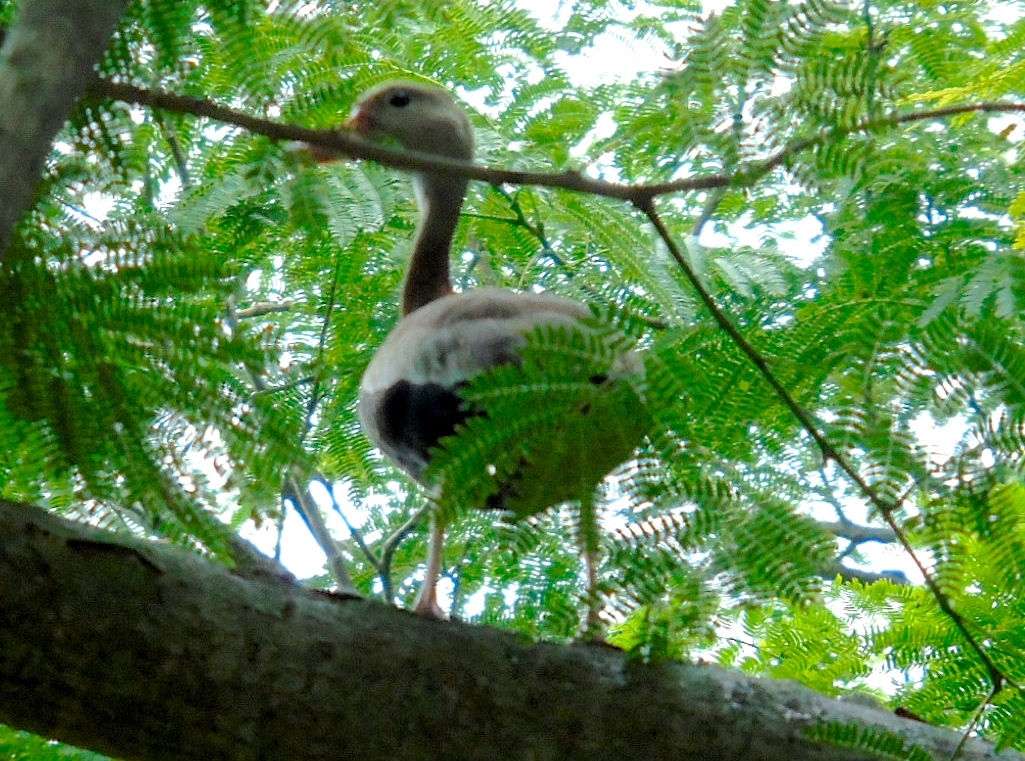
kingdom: Animalia
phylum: Chordata
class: Aves
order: Anseriformes
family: Anatidae
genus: Dendrocygna
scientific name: Dendrocygna autumnalis
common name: Black-bellied whistling duck
